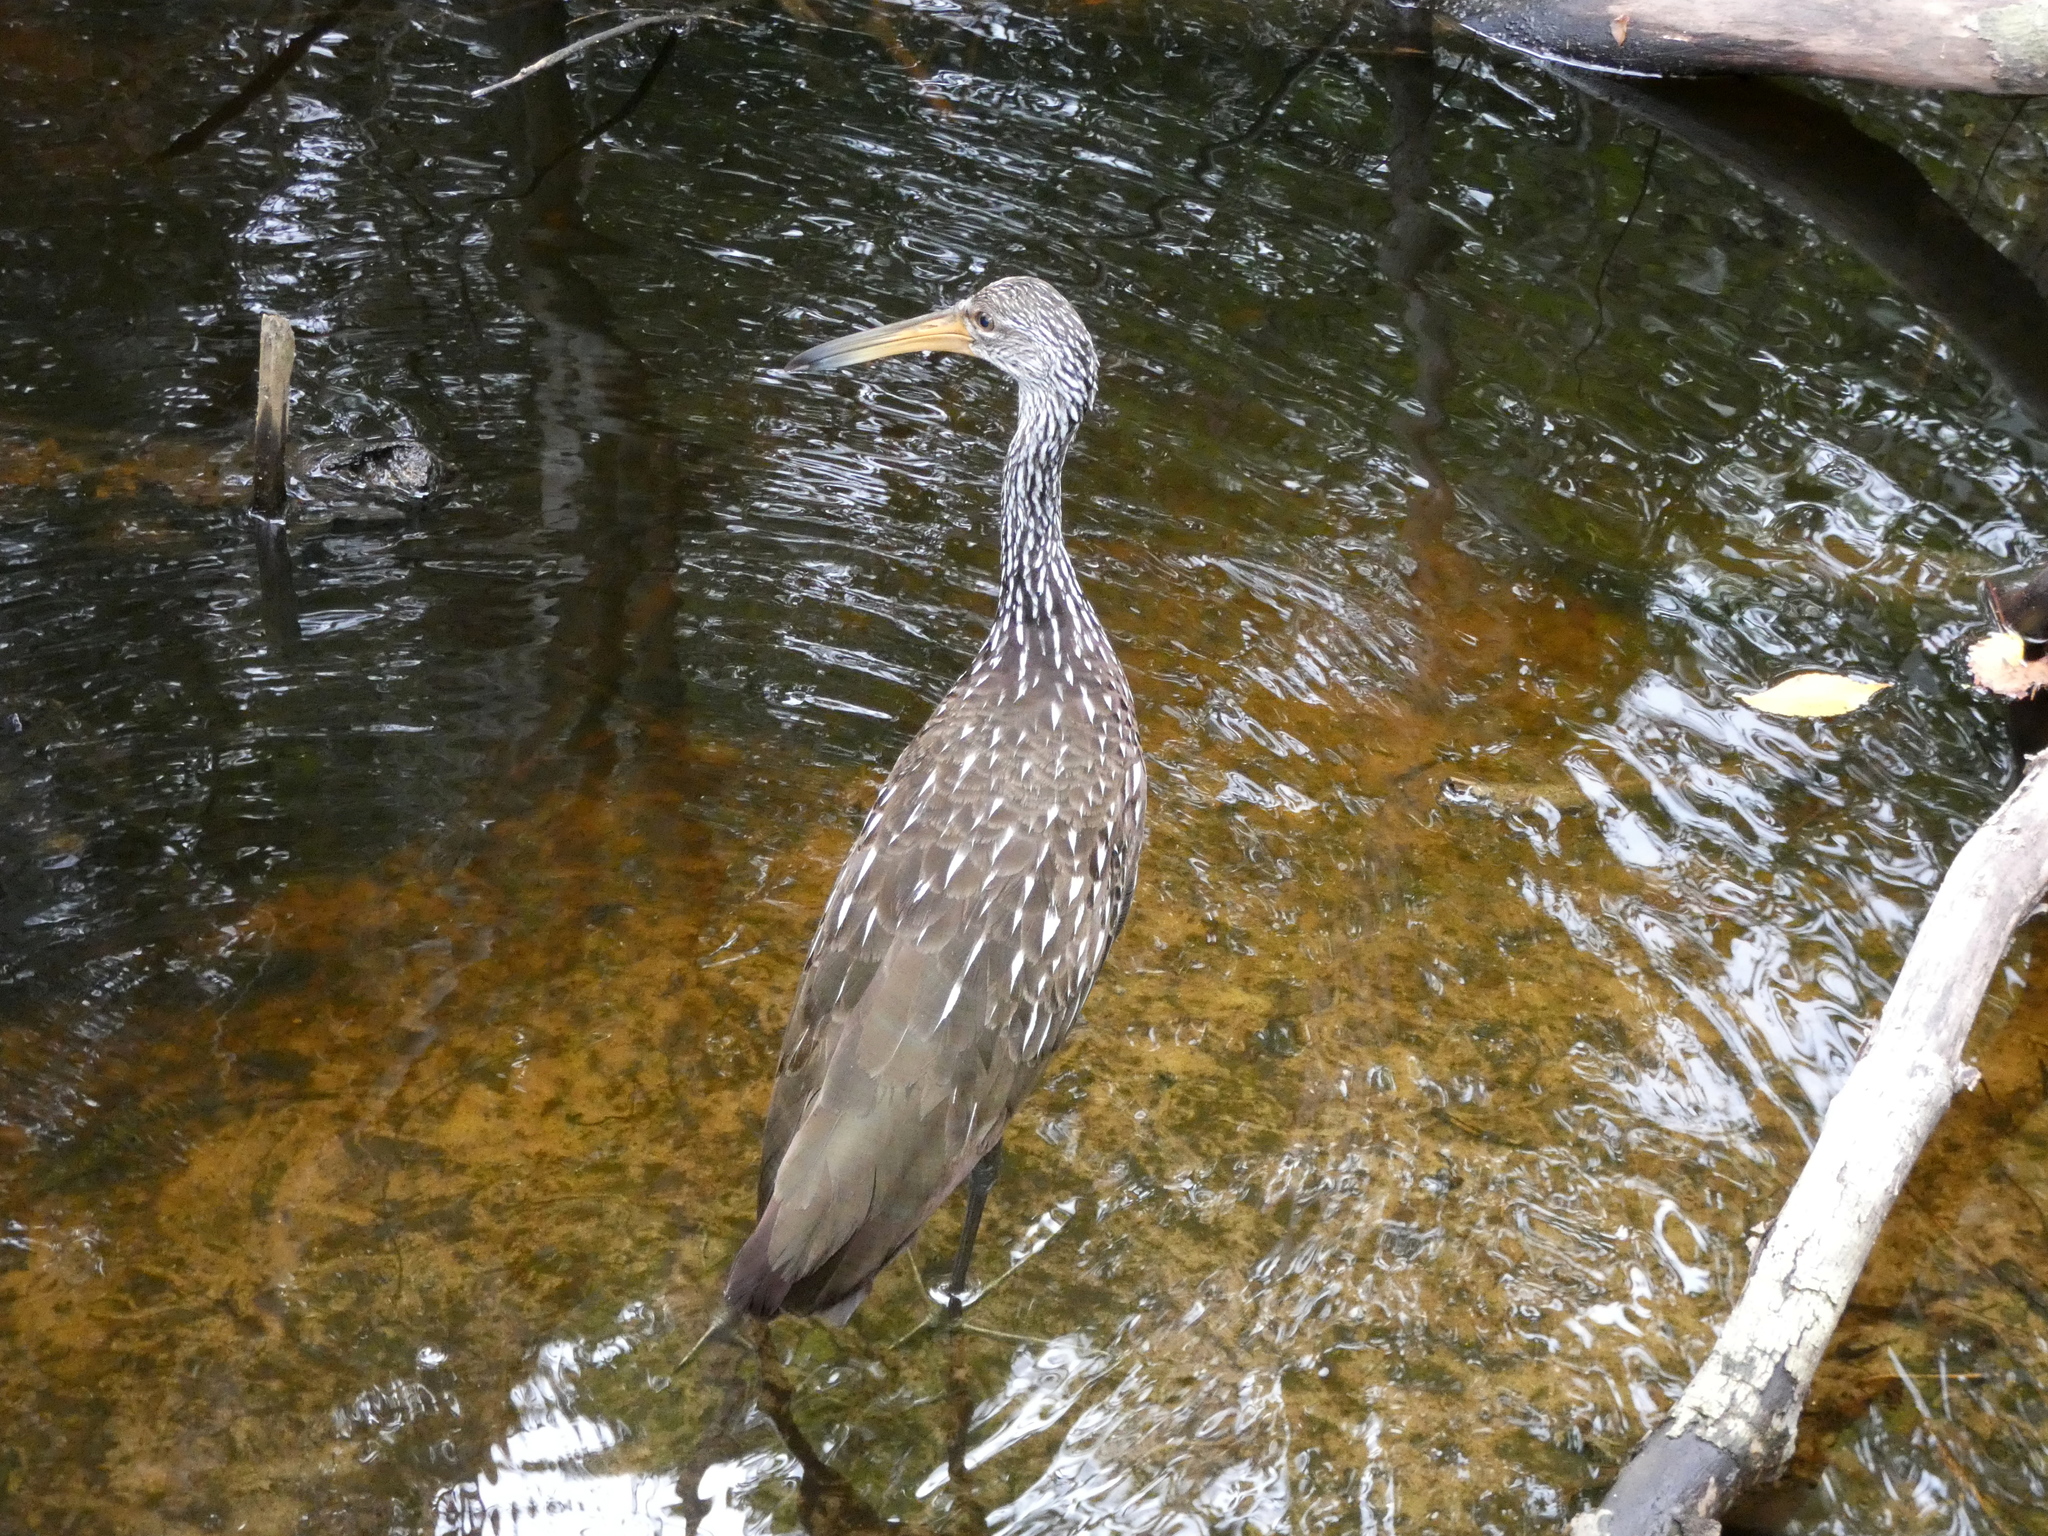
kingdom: Animalia
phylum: Chordata
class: Aves
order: Gruiformes
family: Aramidae
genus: Aramus
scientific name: Aramus guarauna
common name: Limpkin
